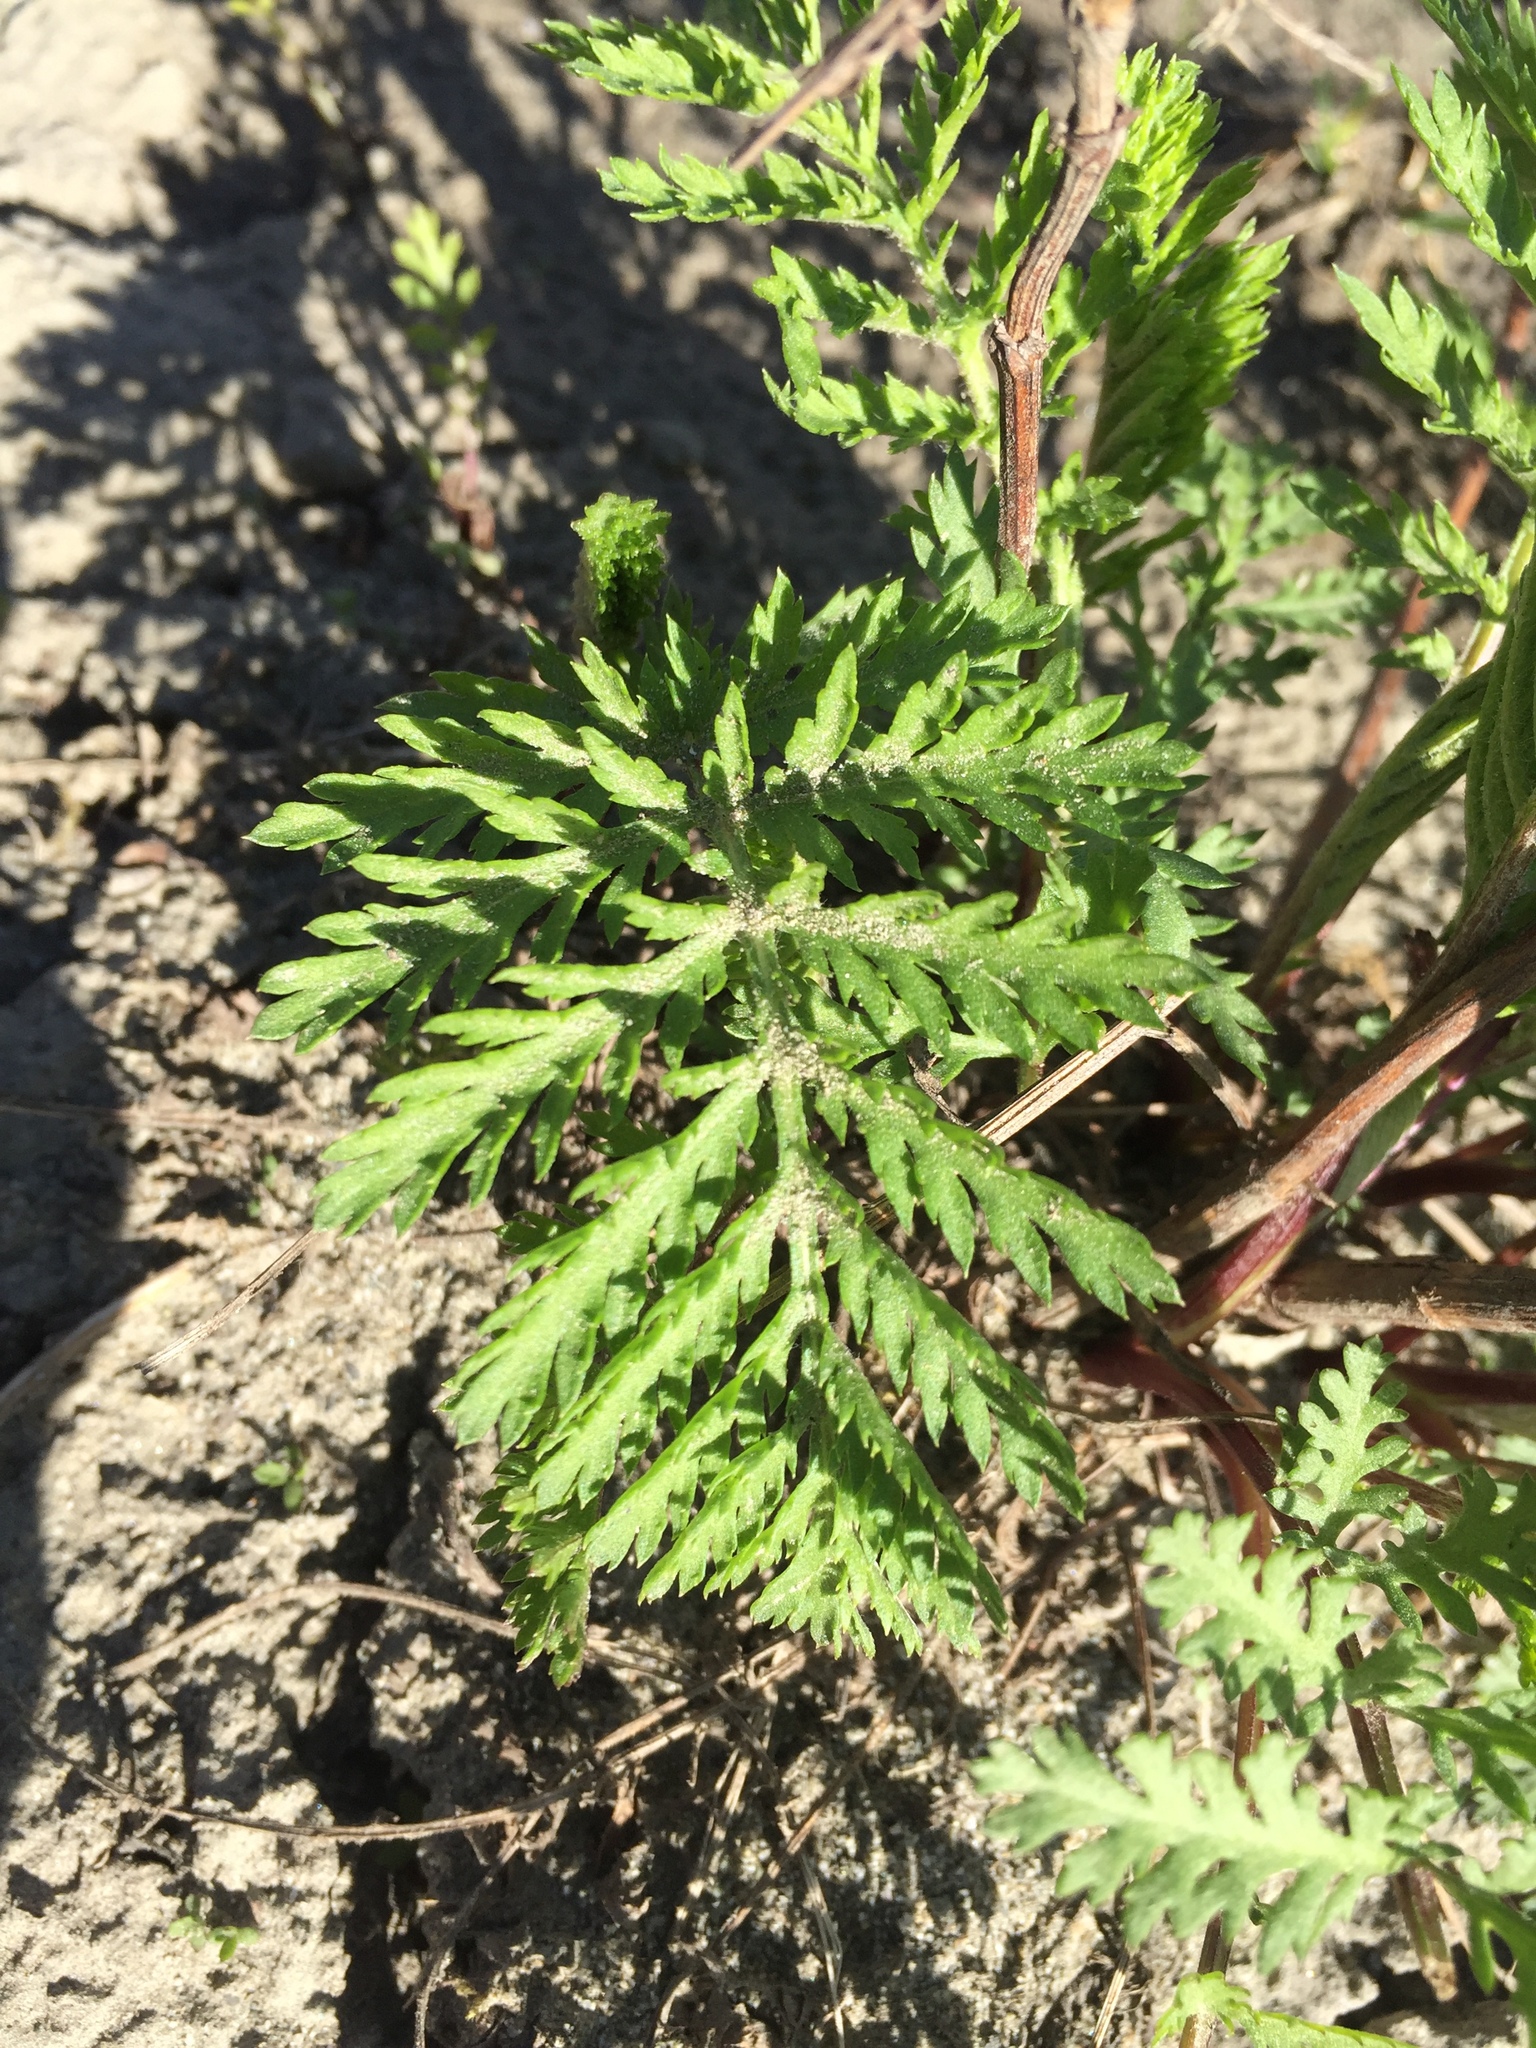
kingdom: Plantae
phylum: Tracheophyta
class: Magnoliopsida
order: Asterales
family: Asteraceae
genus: Tanacetum
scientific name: Tanacetum vulgare
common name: Common tansy
